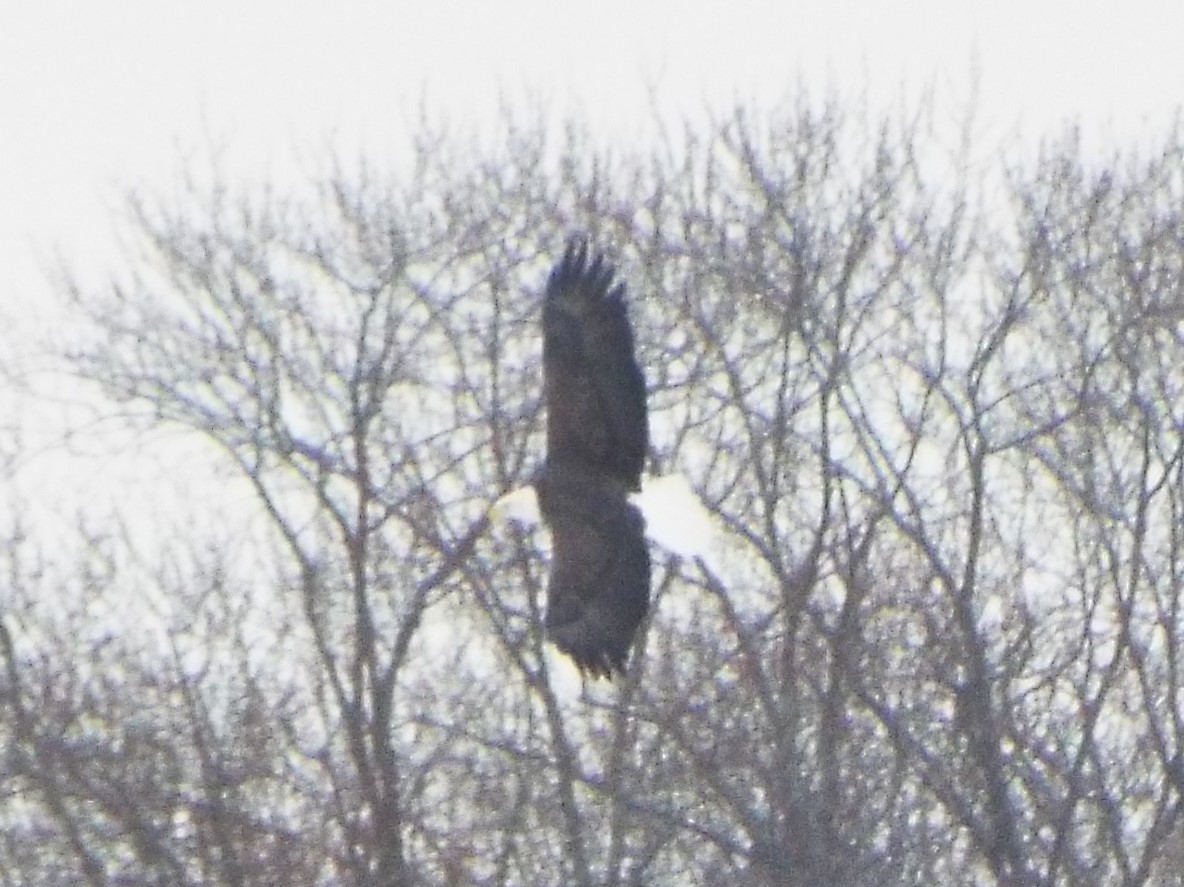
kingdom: Animalia
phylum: Chordata
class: Aves
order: Accipitriformes
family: Accipitridae
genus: Haliaeetus
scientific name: Haliaeetus leucocephalus
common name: Bald eagle
